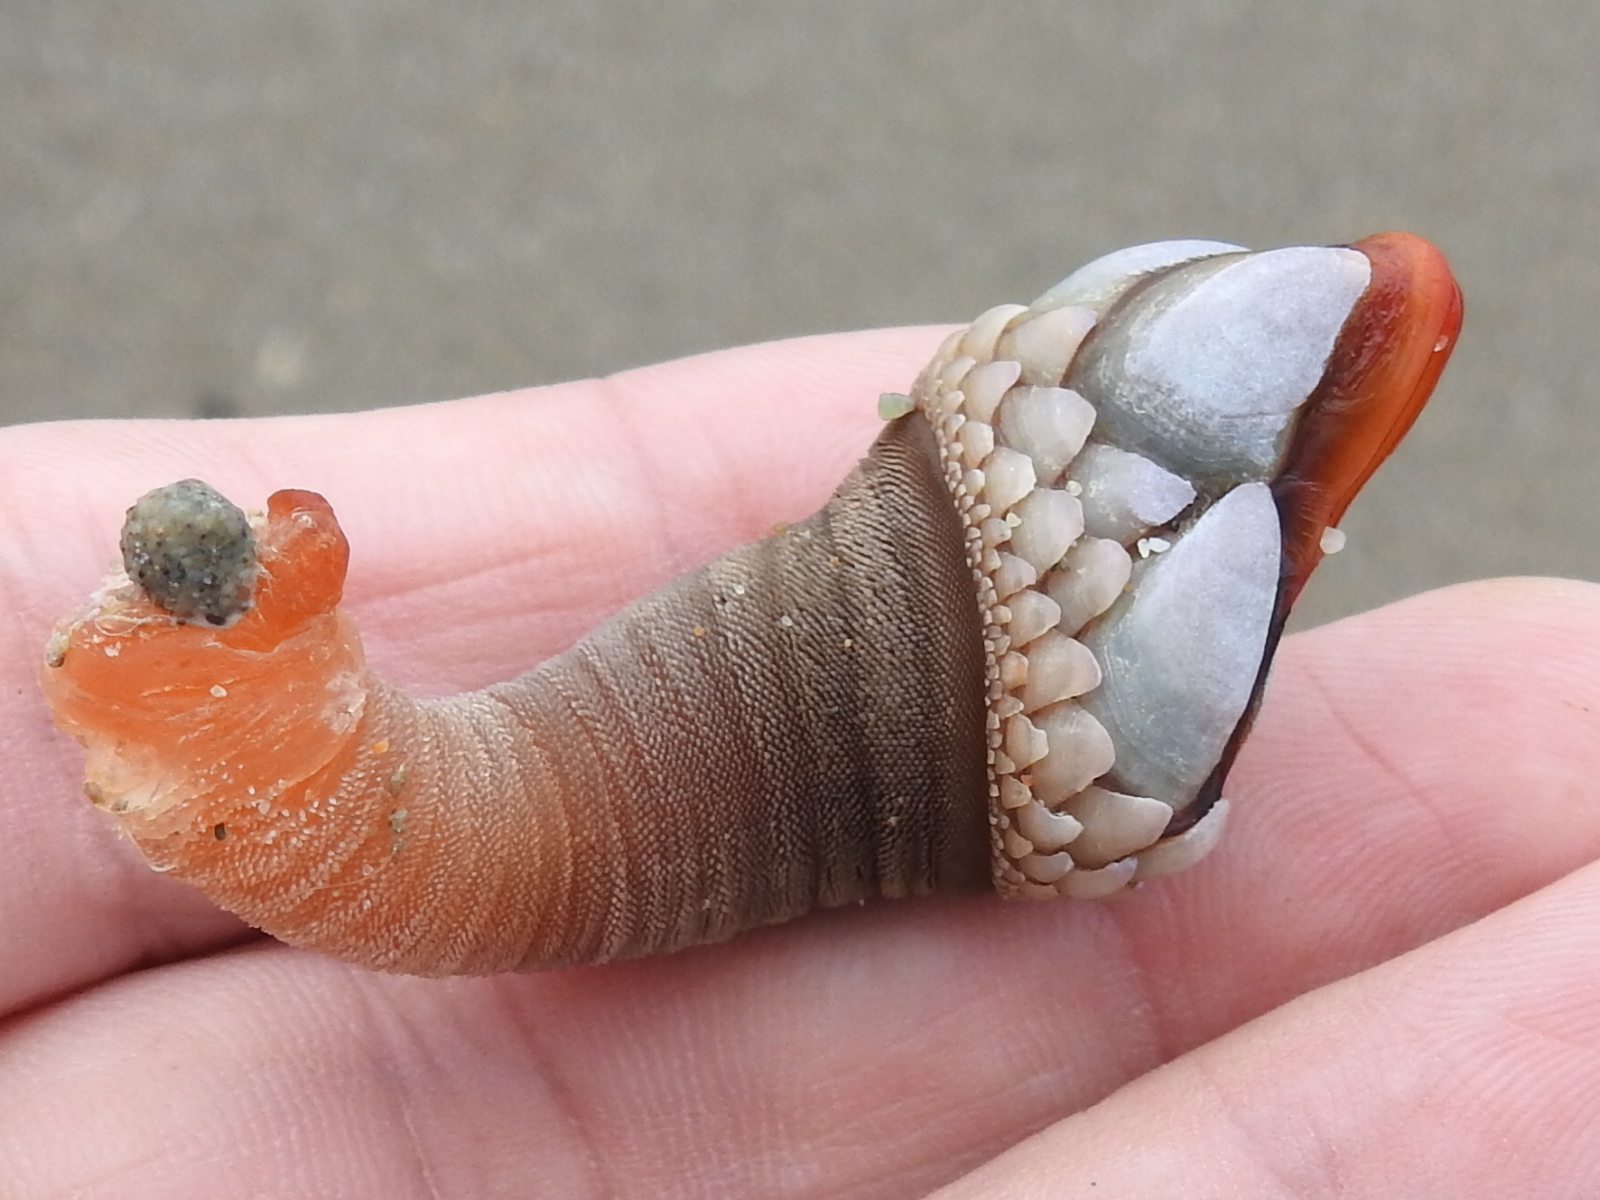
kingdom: Animalia
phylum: Arthropoda
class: Maxillopoda
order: Pedunculata
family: Pollicipedidae
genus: Pollicipes
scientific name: Pollicipes polymerus
